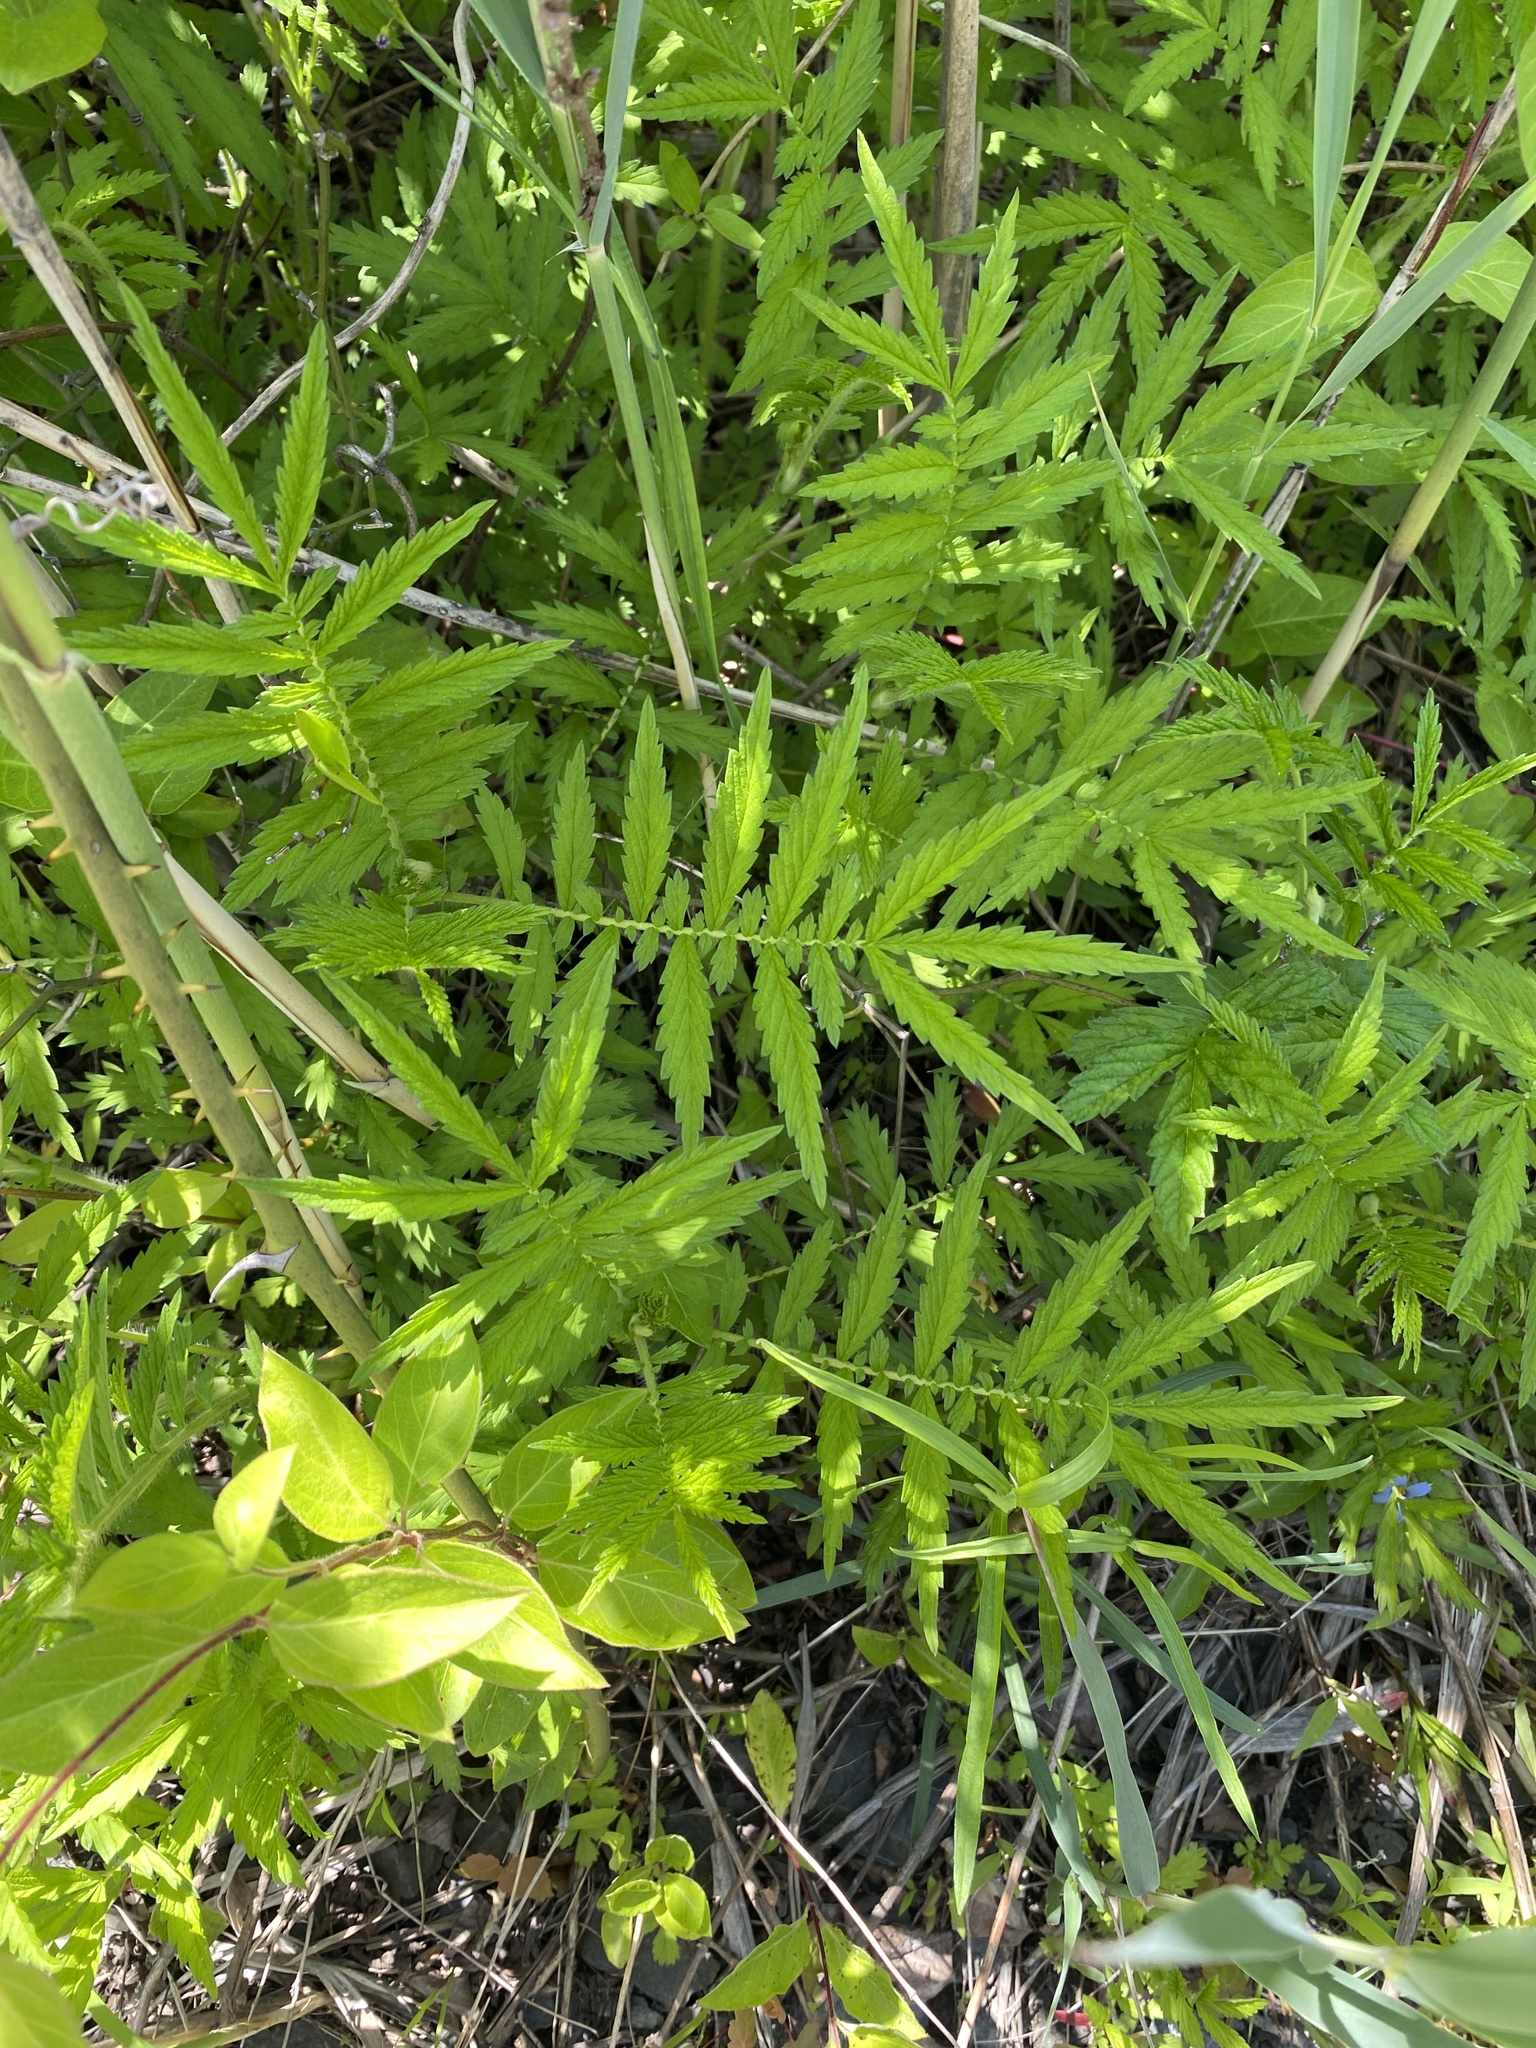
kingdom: Plantae
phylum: Tracheophyta
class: Magnoliopsida
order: Rosales
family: Rosaceae
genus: Agrimonia
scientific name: Agrimonia parviflora
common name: Harvest-lice
